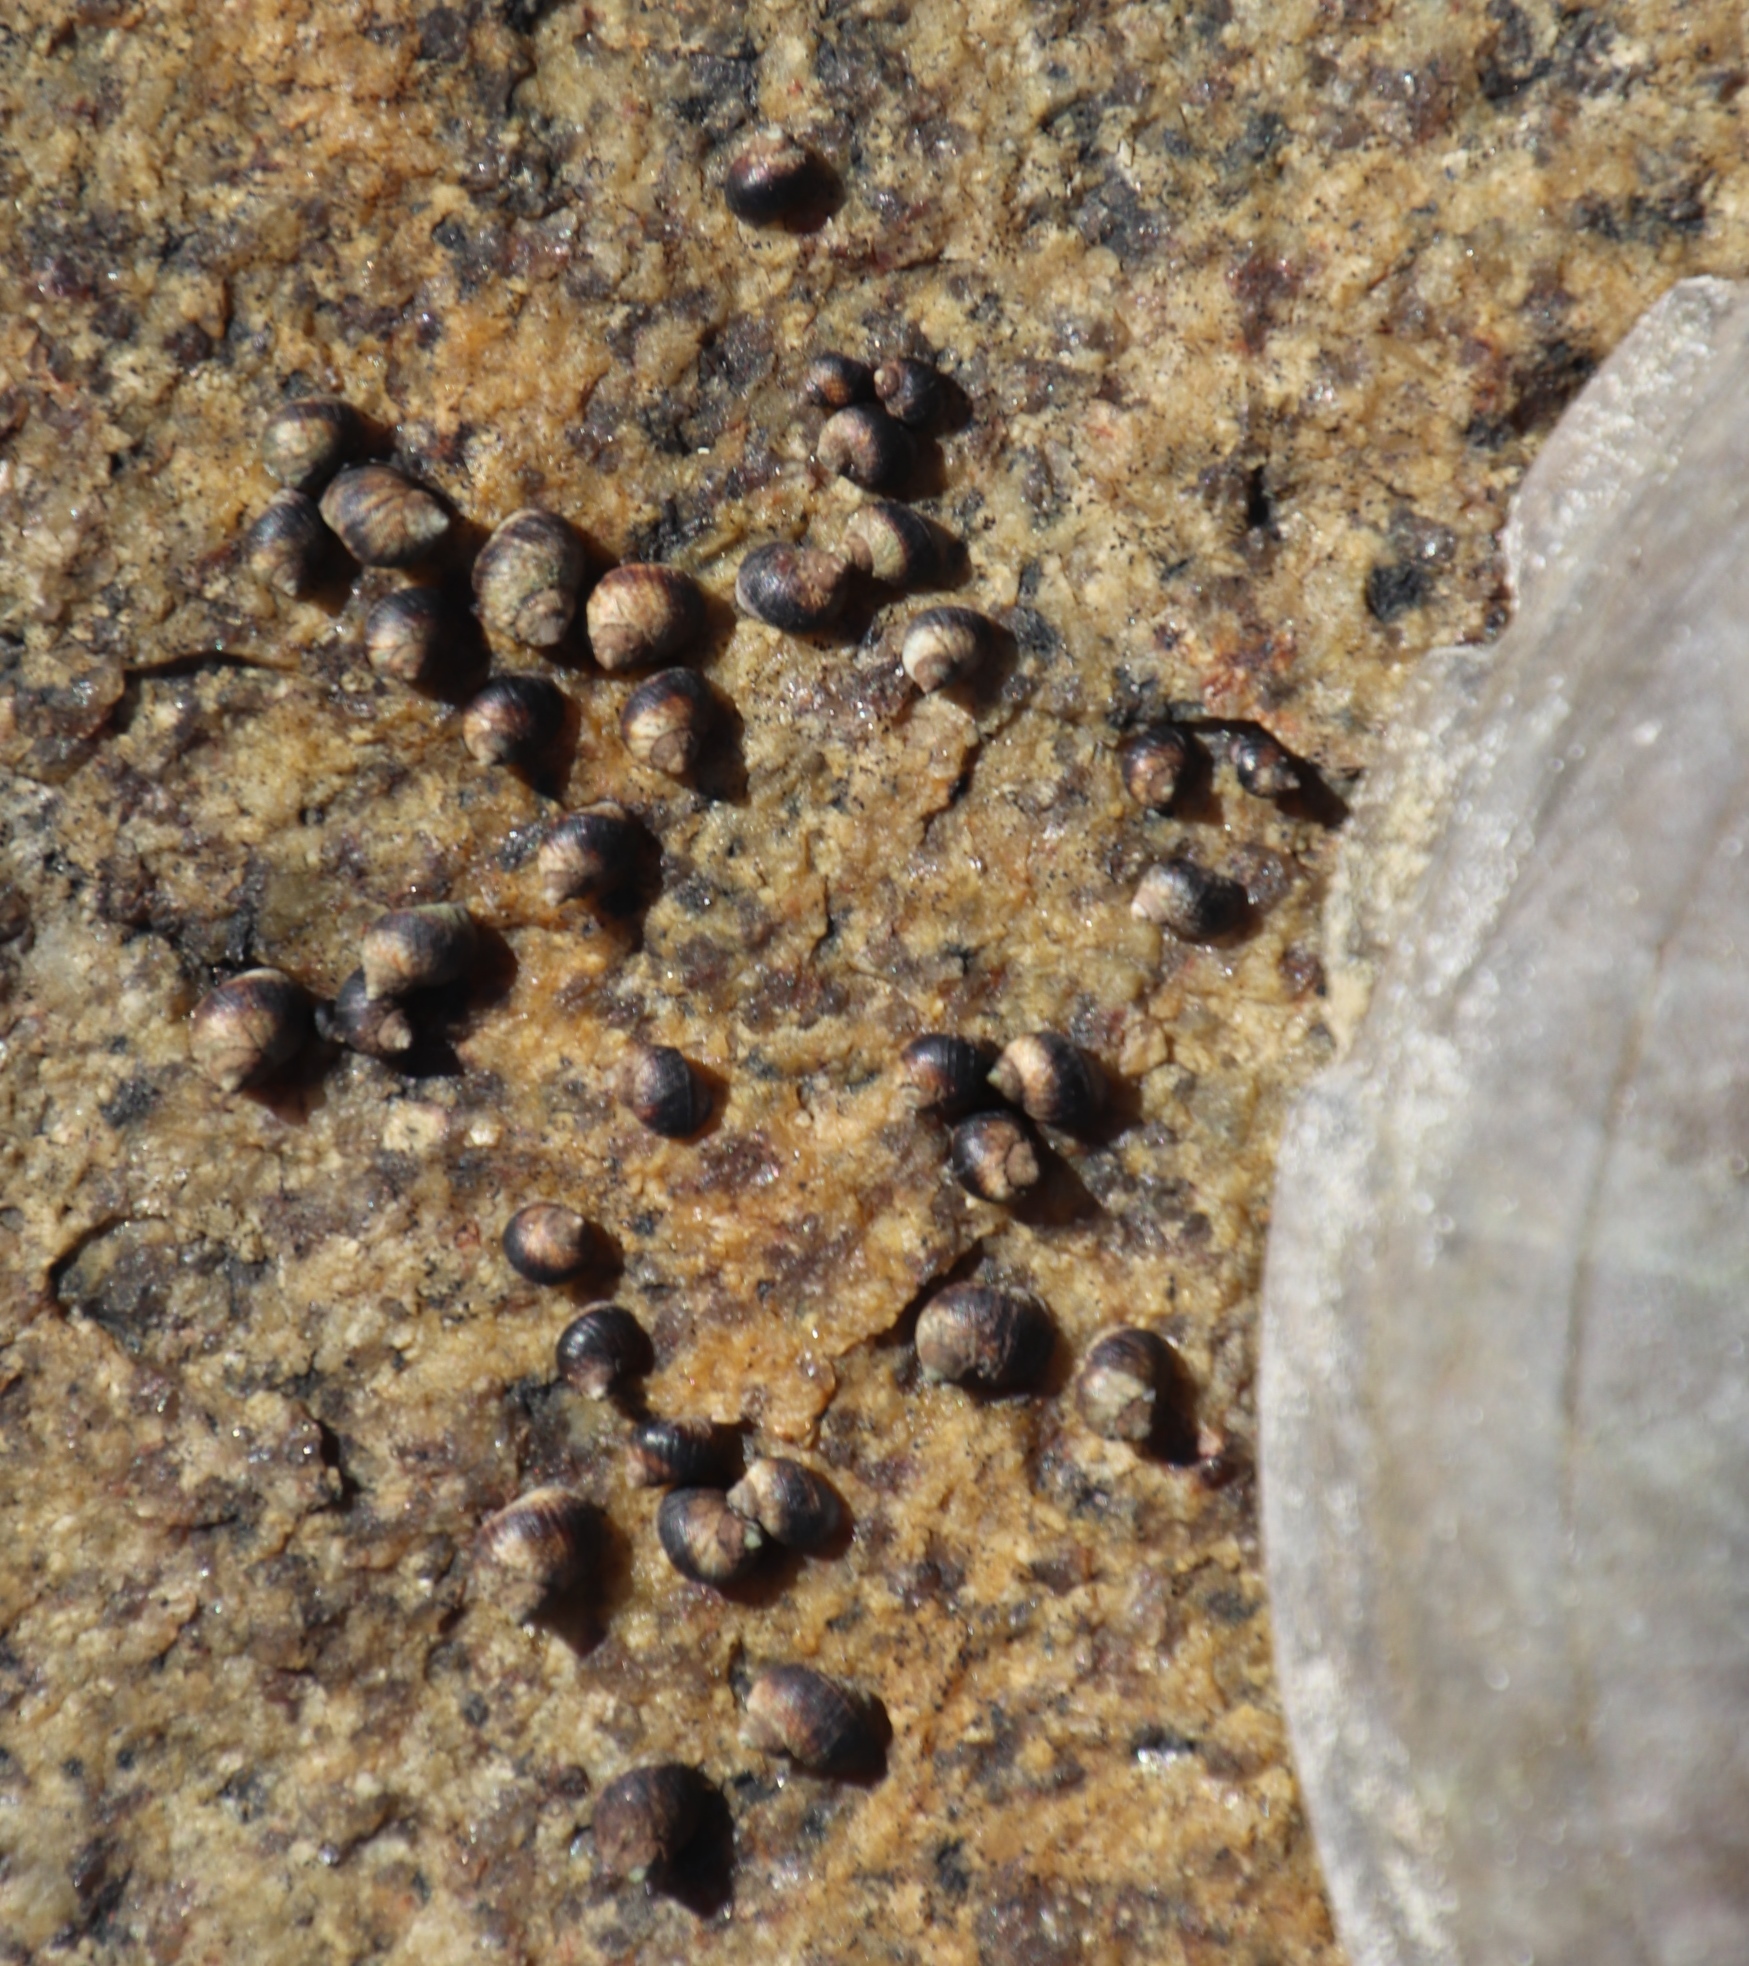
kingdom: Animalia
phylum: Mollusca
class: Gastropoda
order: Littorinimorpha
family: Littorinidae
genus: Afrolittorina
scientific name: Afrolittorina knysnaensis
